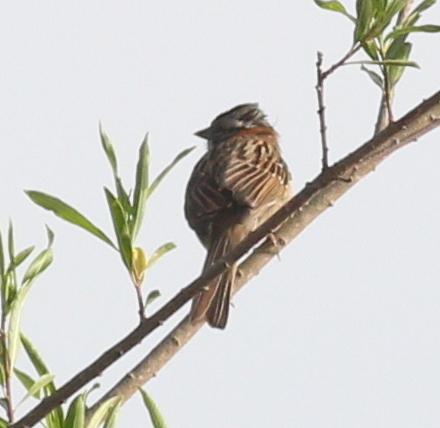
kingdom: Animalia
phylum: Chordata
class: Aves
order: Passeriformes
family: Passerellidae
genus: Zonotrichia
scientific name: Zonotrichia capensis
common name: Rufous-collared sparrow
